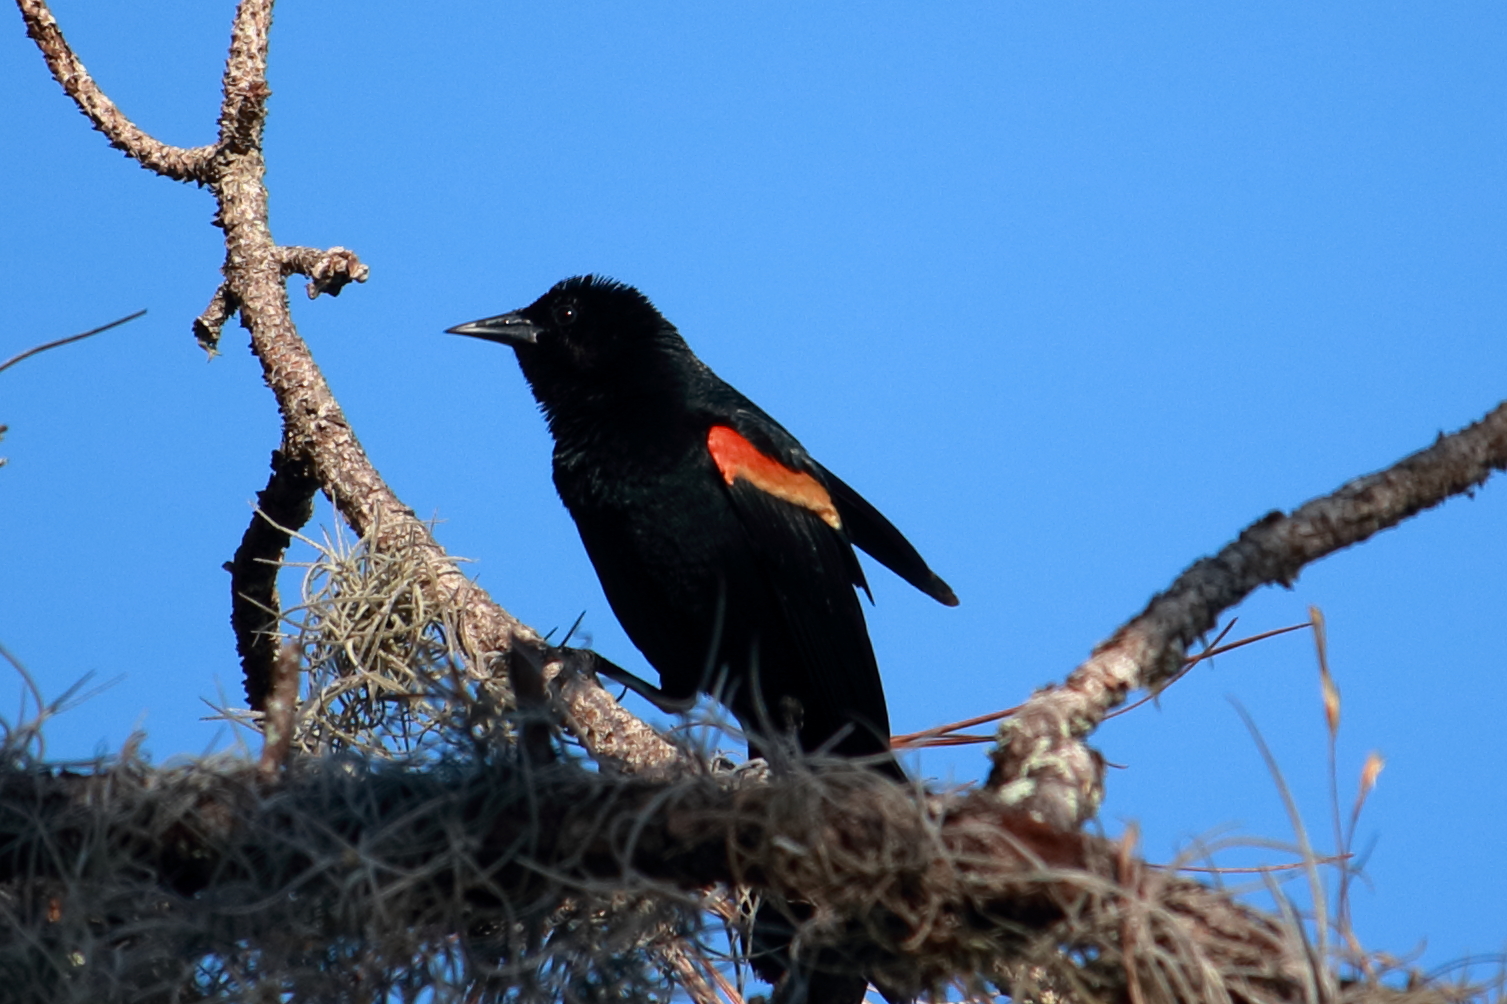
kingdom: Animalia
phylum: Chordata
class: Aves
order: Passeriformes
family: Icteridae
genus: Agelaius
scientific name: Agelaius phoeniceus
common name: Red-winged blackbird
